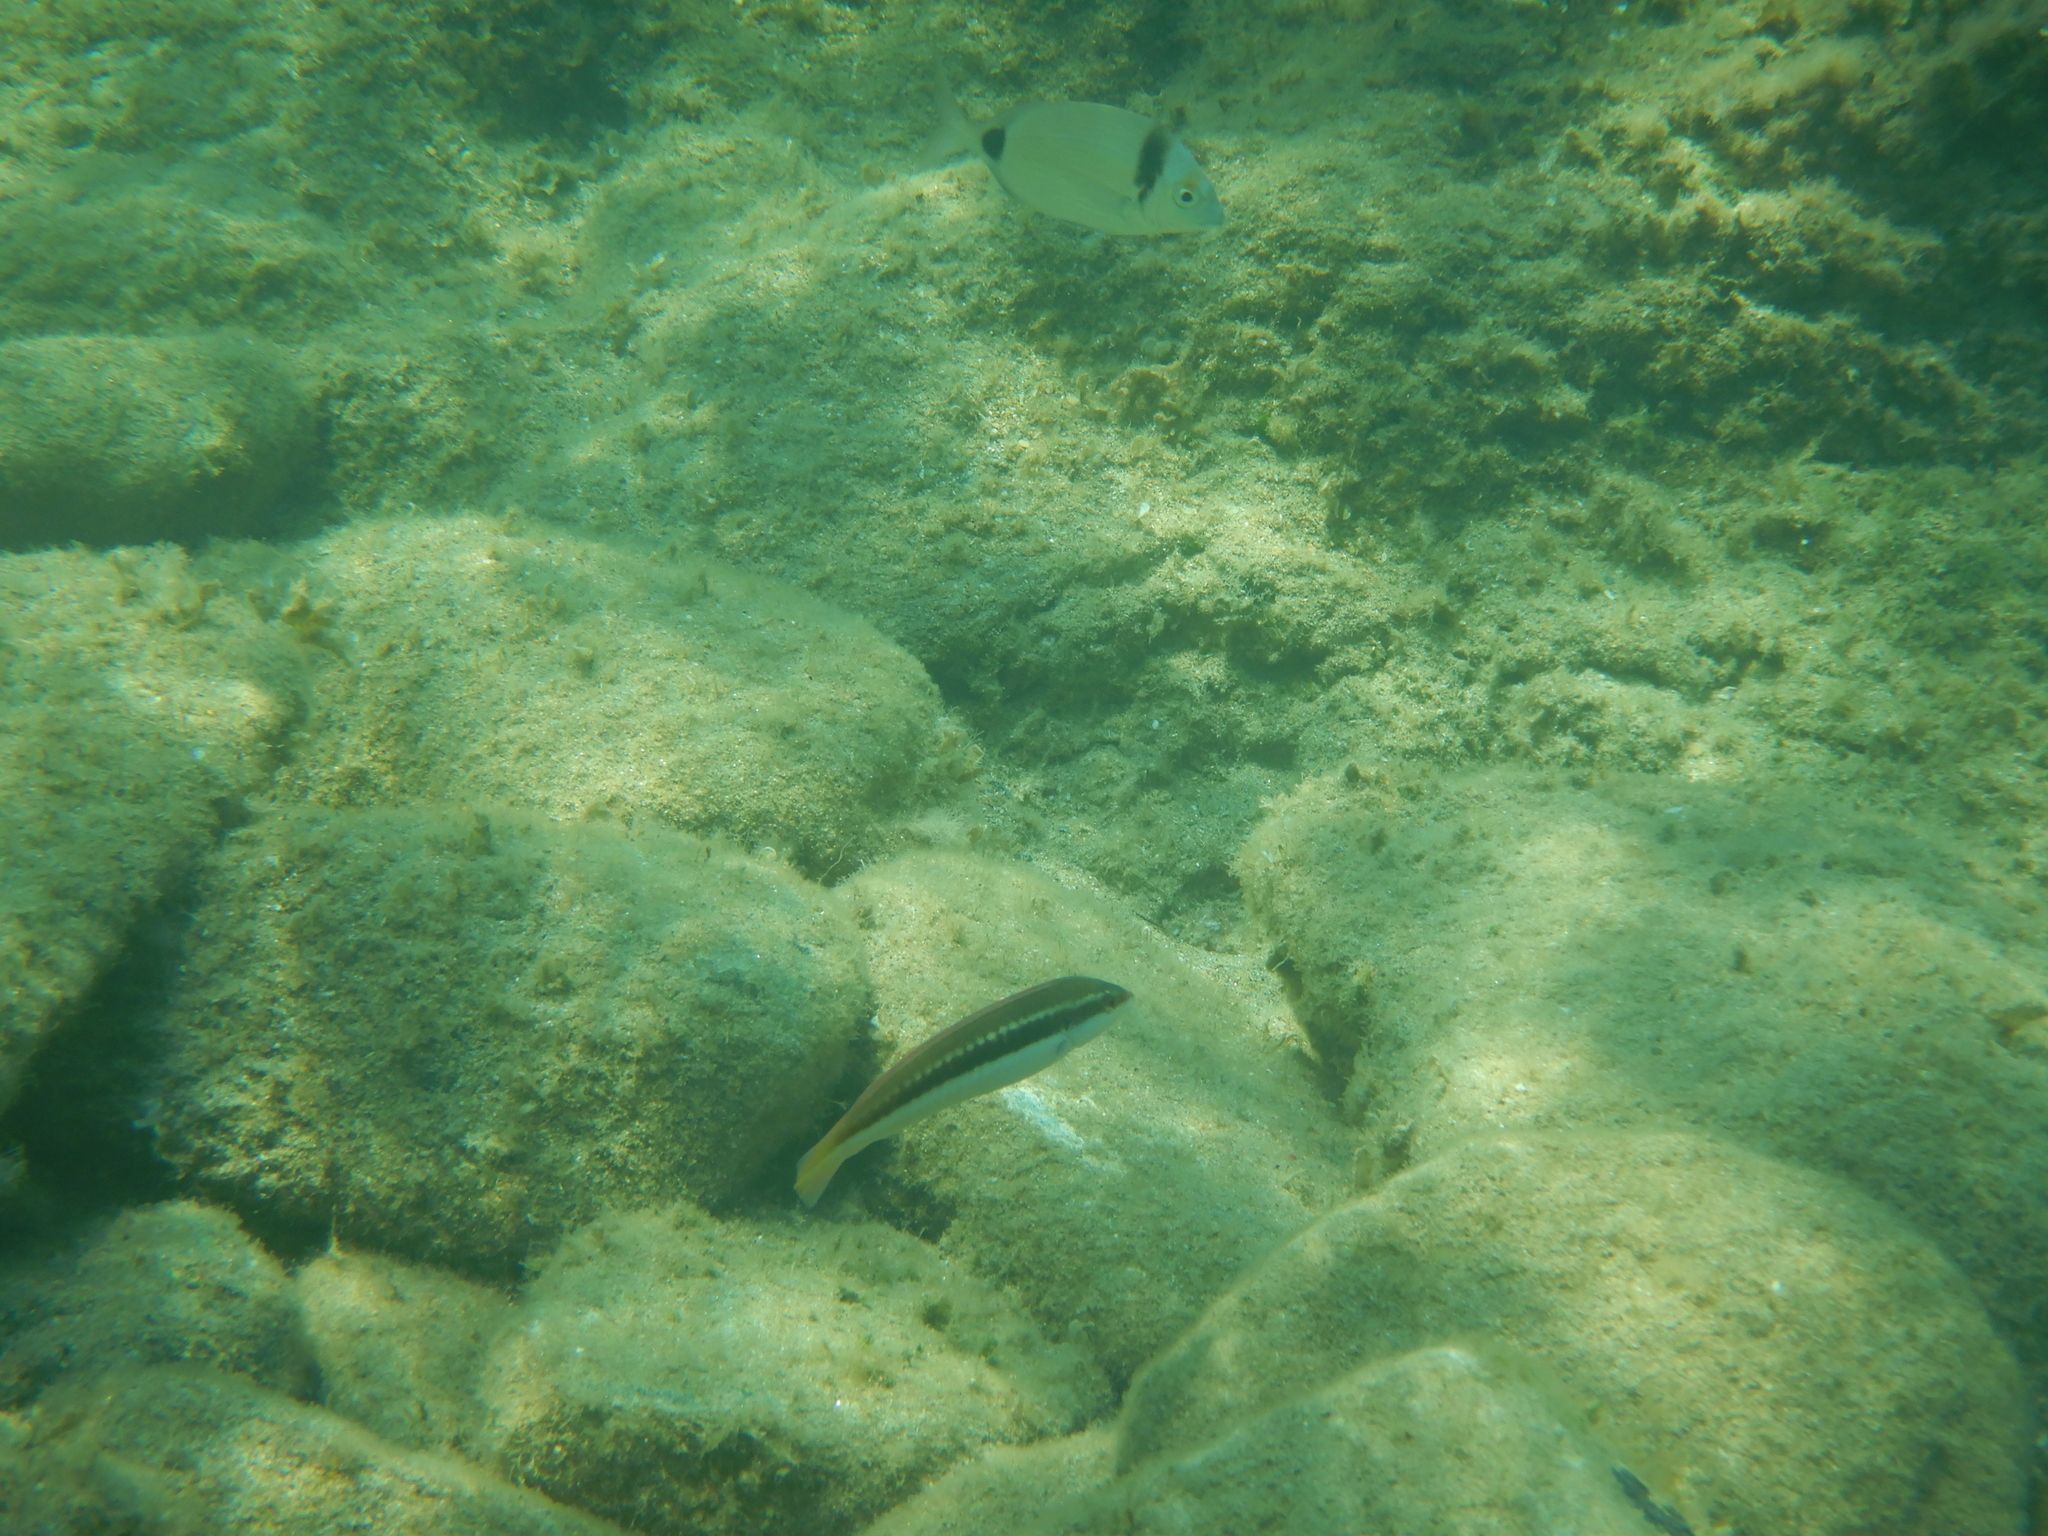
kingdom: Animalia
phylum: Chordata
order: Perciformes
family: Labridae
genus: Coris
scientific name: Coris julis
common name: Rainbow wrasse
